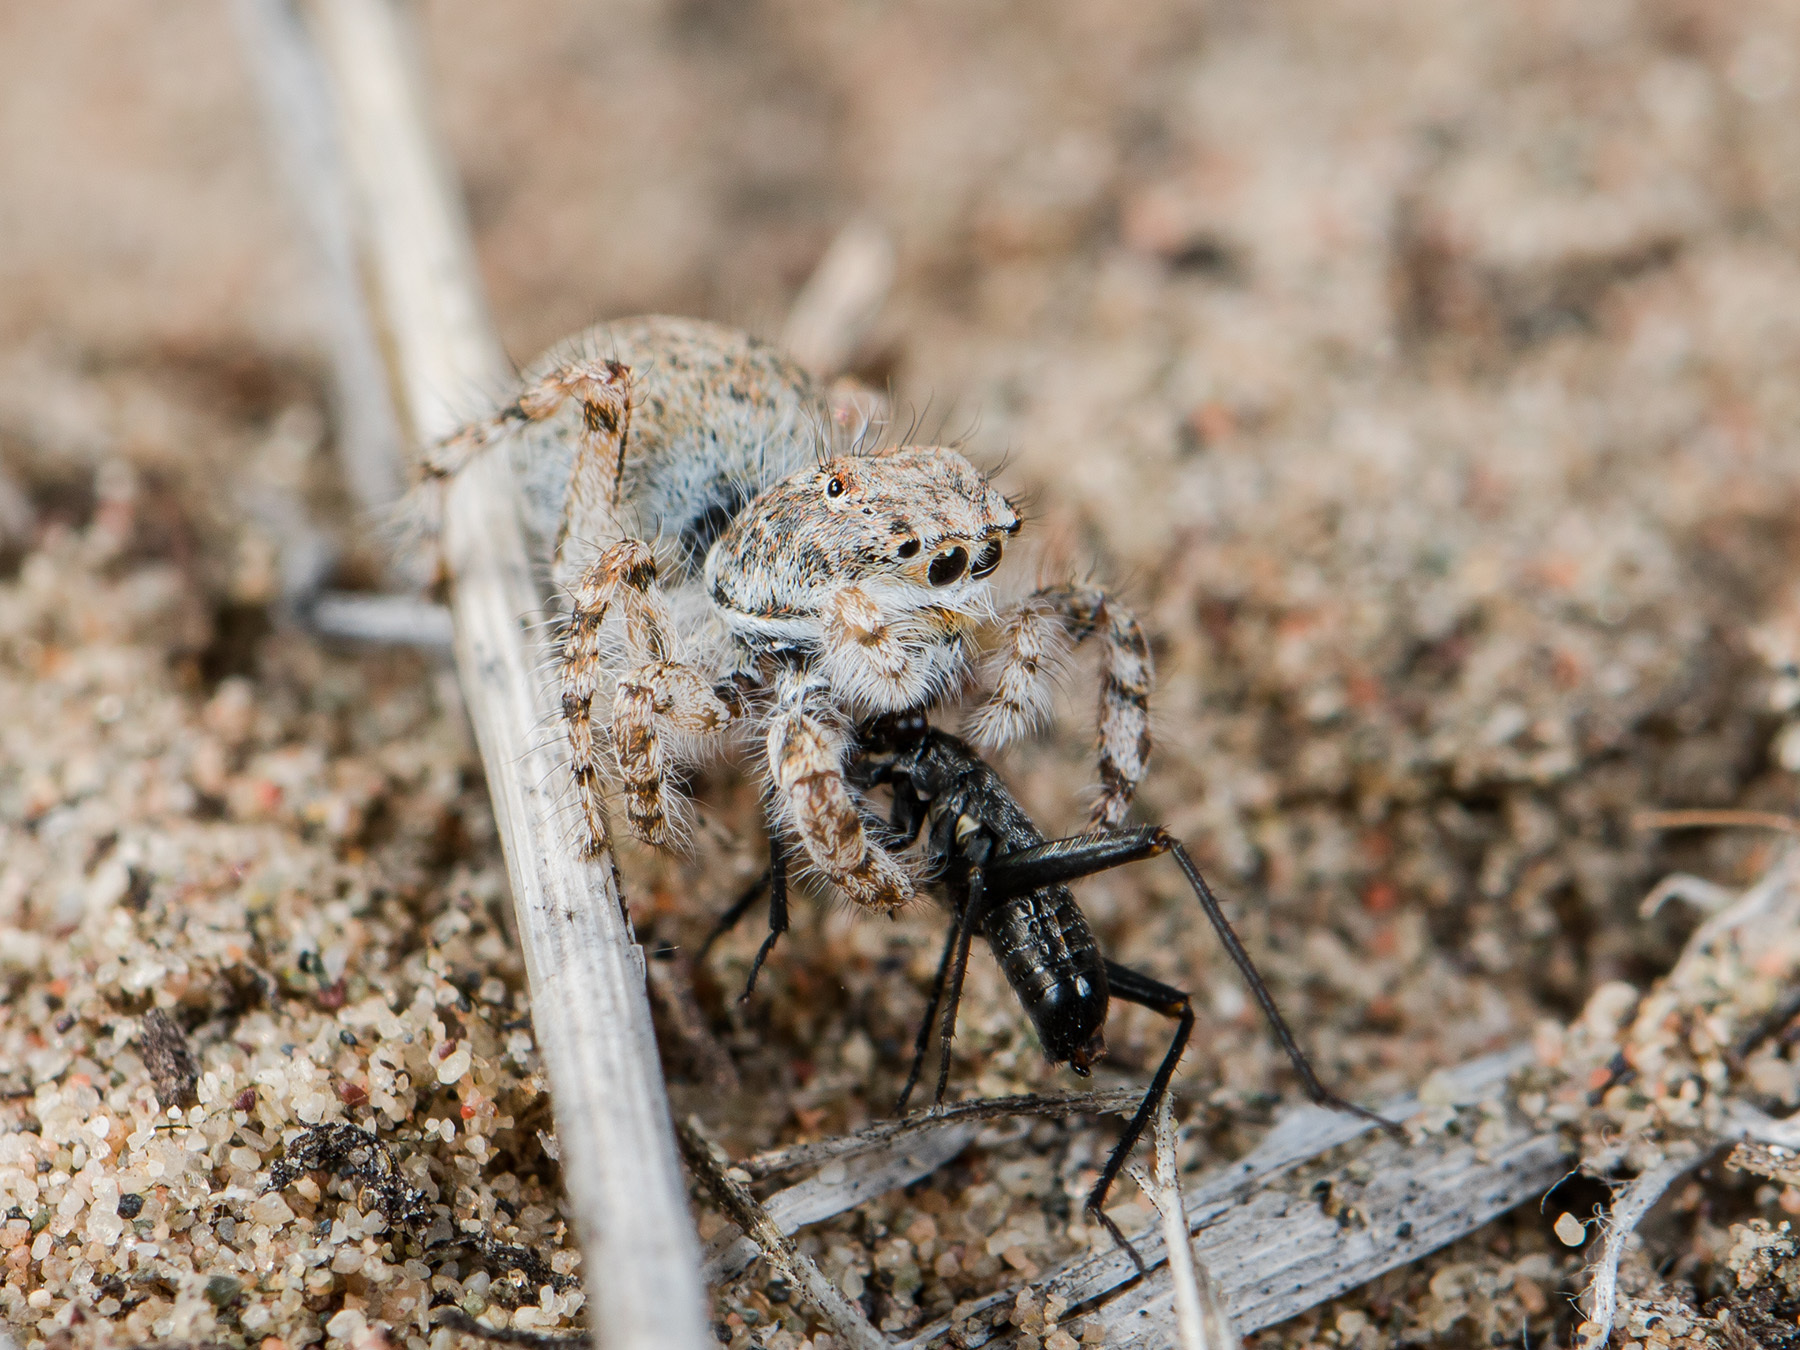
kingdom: Animalia
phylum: Arthropoda
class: Arachnida
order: Araneae
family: Salticidae
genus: Yllenus
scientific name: Yllenus uiguricus
